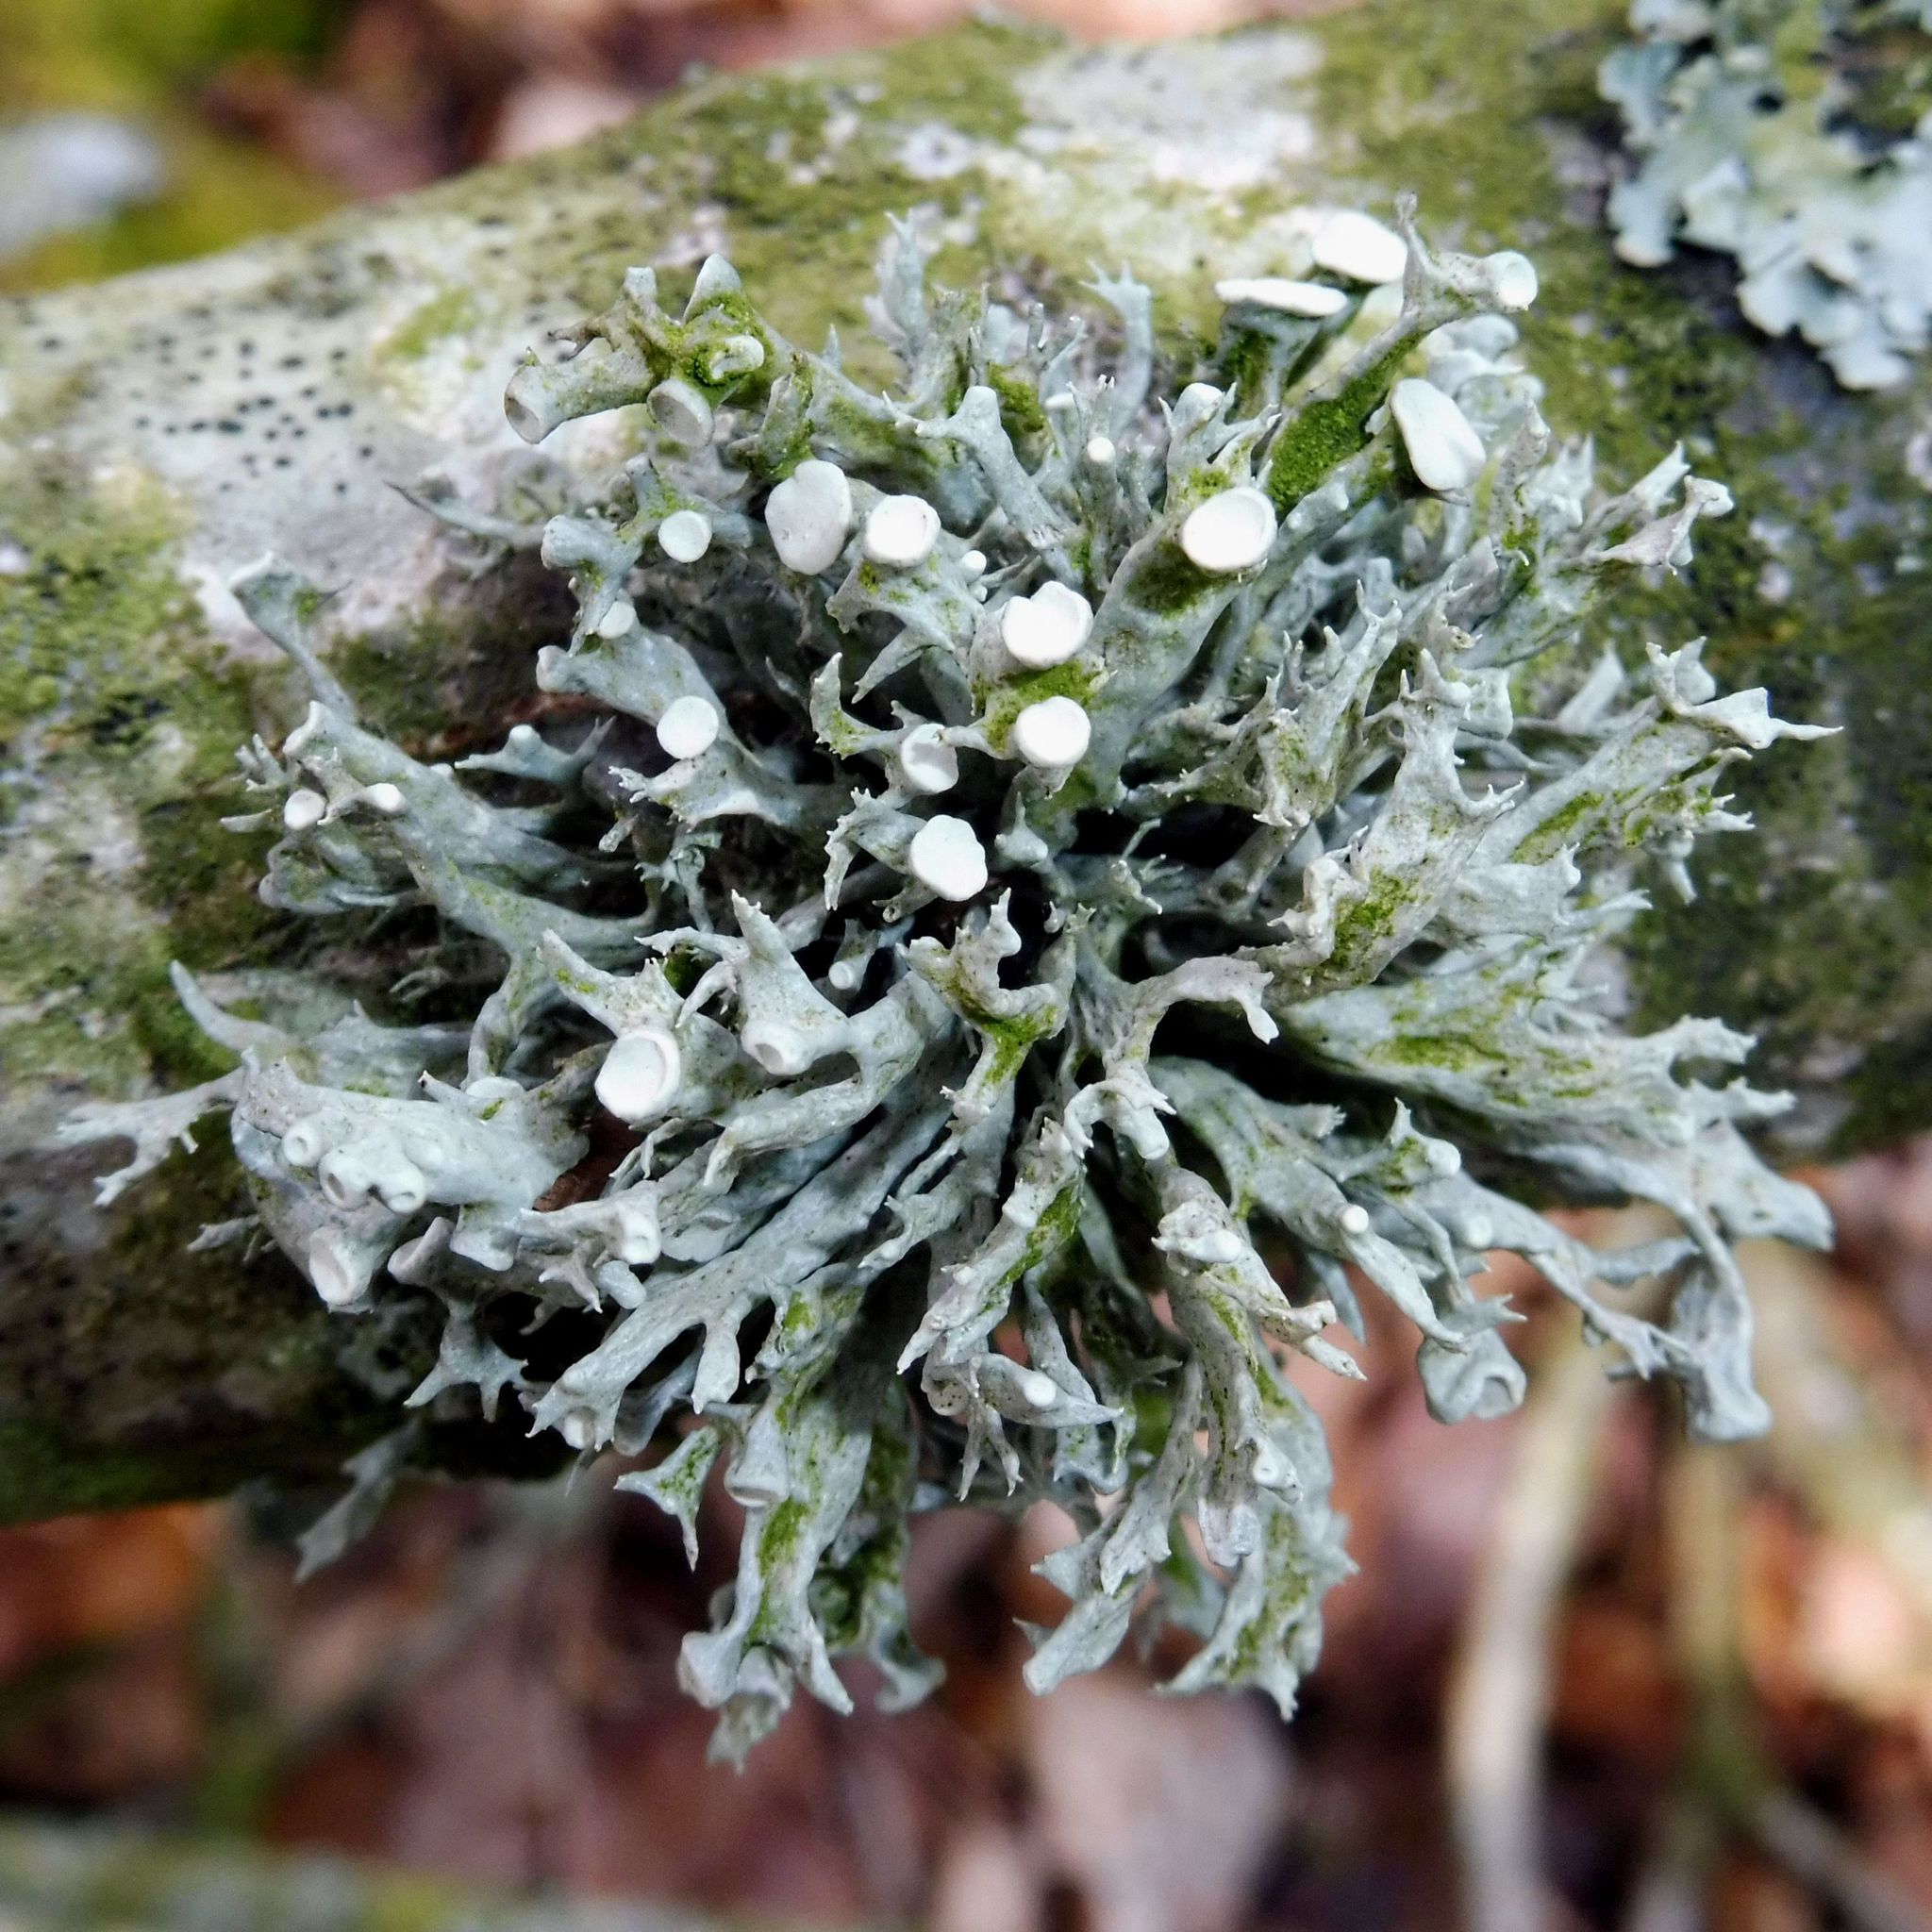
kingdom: Fungi
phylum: Ascomycota
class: Lecanoromycetes
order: Lecanorales
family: Ramalinaceae
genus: Ramalina
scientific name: Ramalina fastigiata
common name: Dotted ribbon lichen
